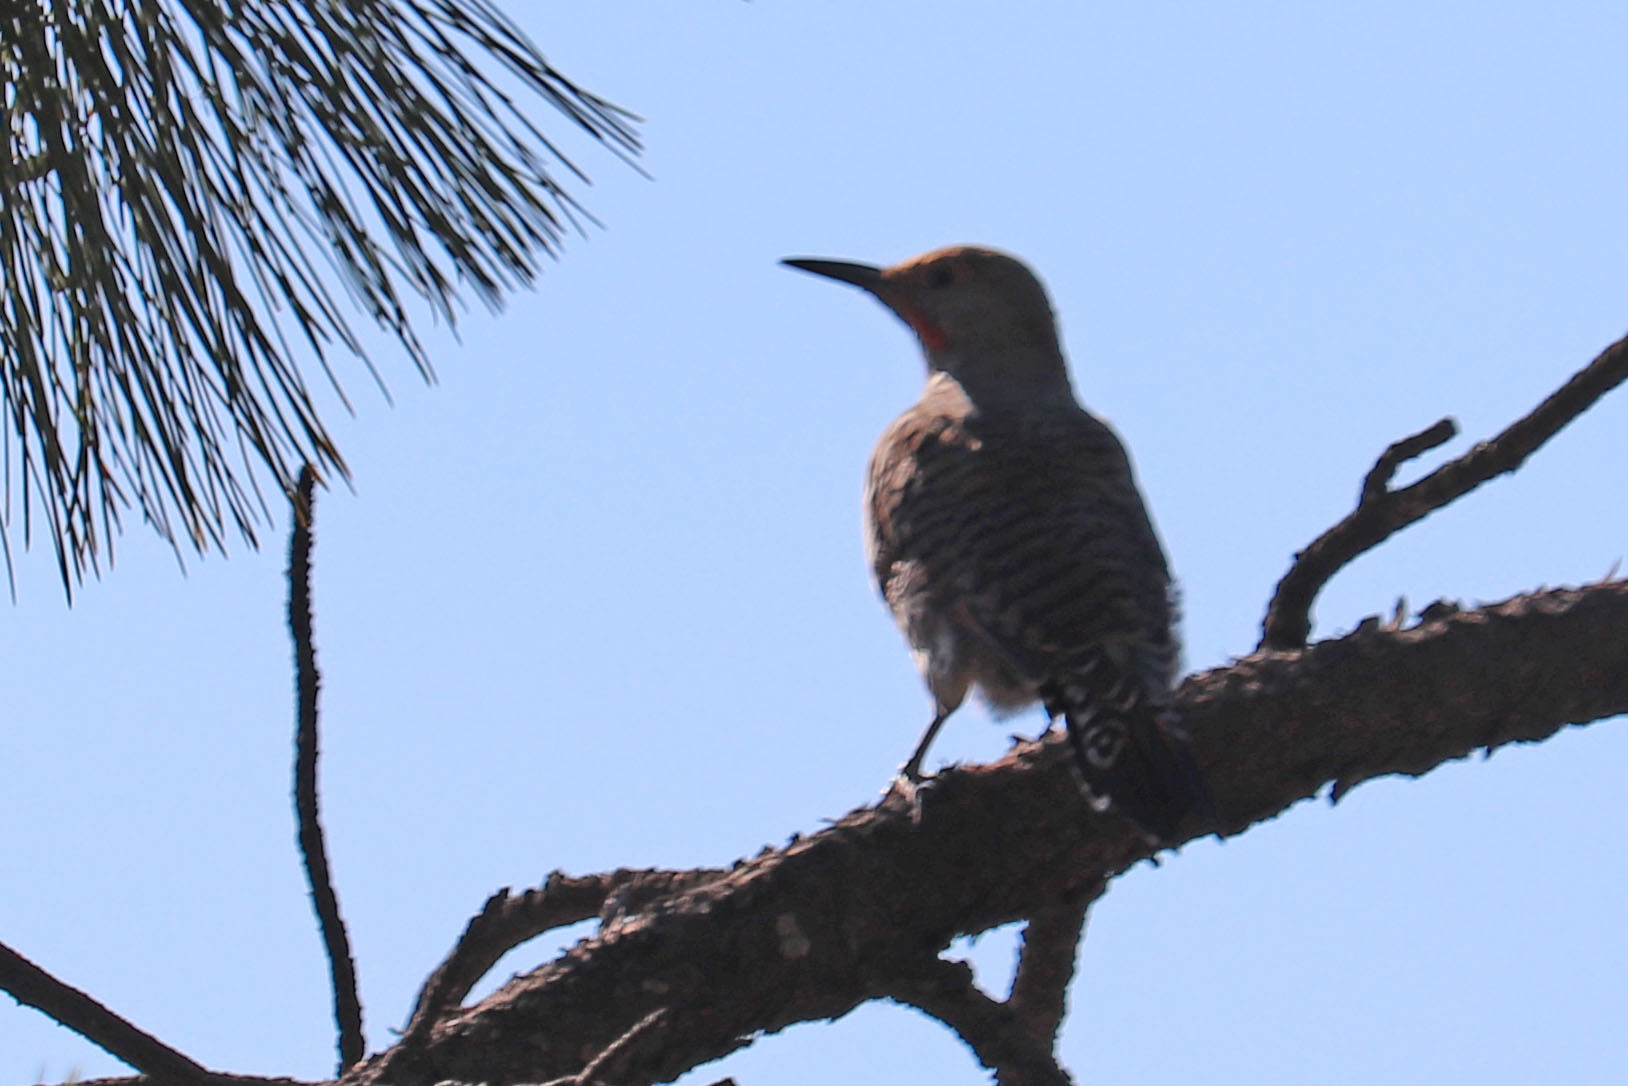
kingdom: Animalia
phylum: Chordata
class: Aves
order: Piciformes
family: Picidae
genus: Colaptes
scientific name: Colaptes auratus
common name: Northern flicker
